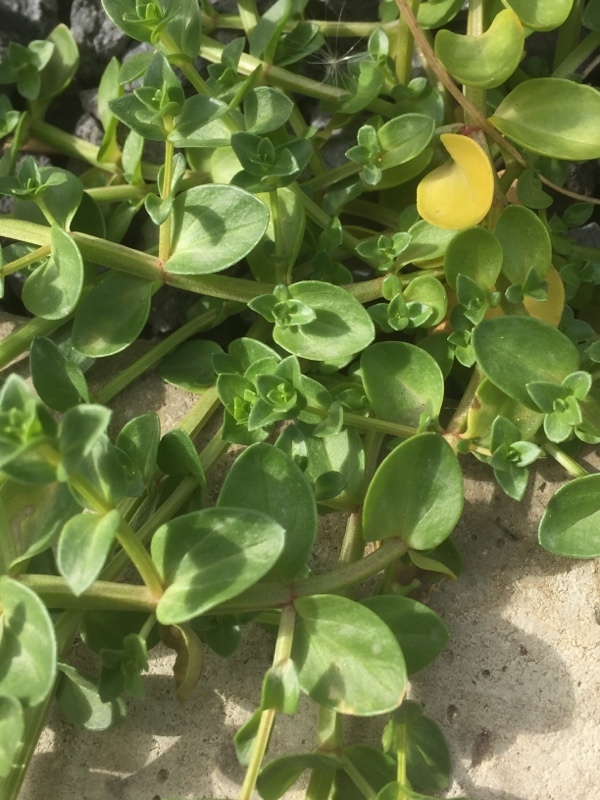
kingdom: Plantae
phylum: Tracheophyta
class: Magnoliopsida
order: Ericales
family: Primulaceae
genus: Lysimachia
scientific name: Lysimachia arvensis
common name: Scarlet pimpernel
